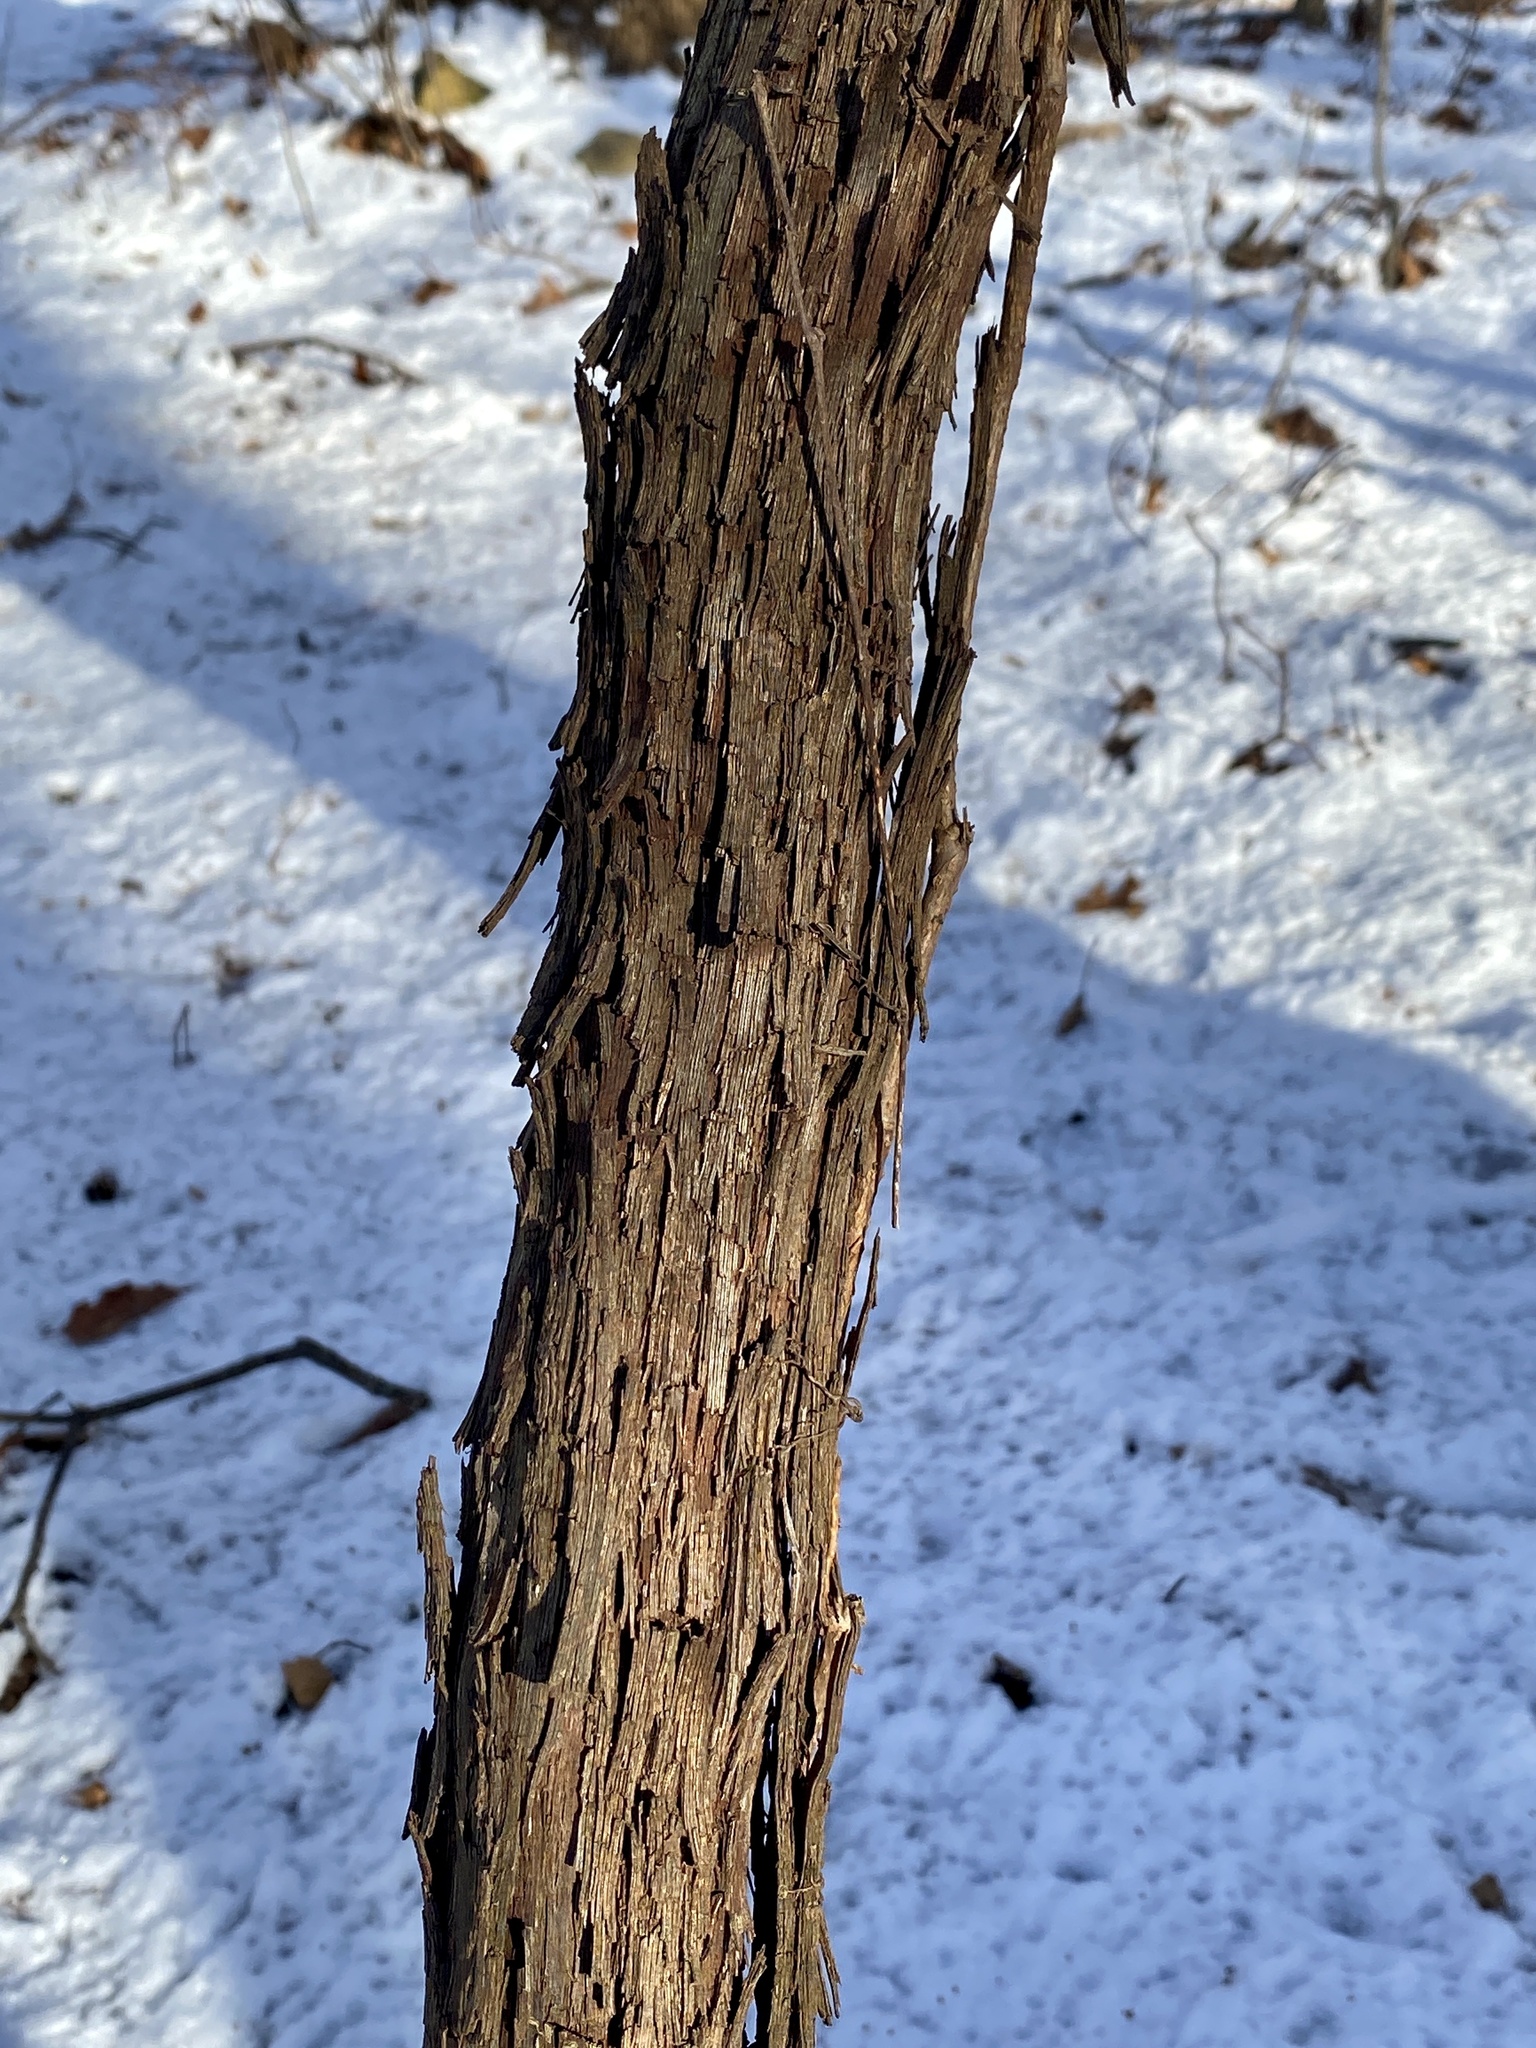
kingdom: Plantae
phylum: Tracheophyta
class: Magnoliopsida
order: Vitales
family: Vitaceae
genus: Vitis
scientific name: Vitis
